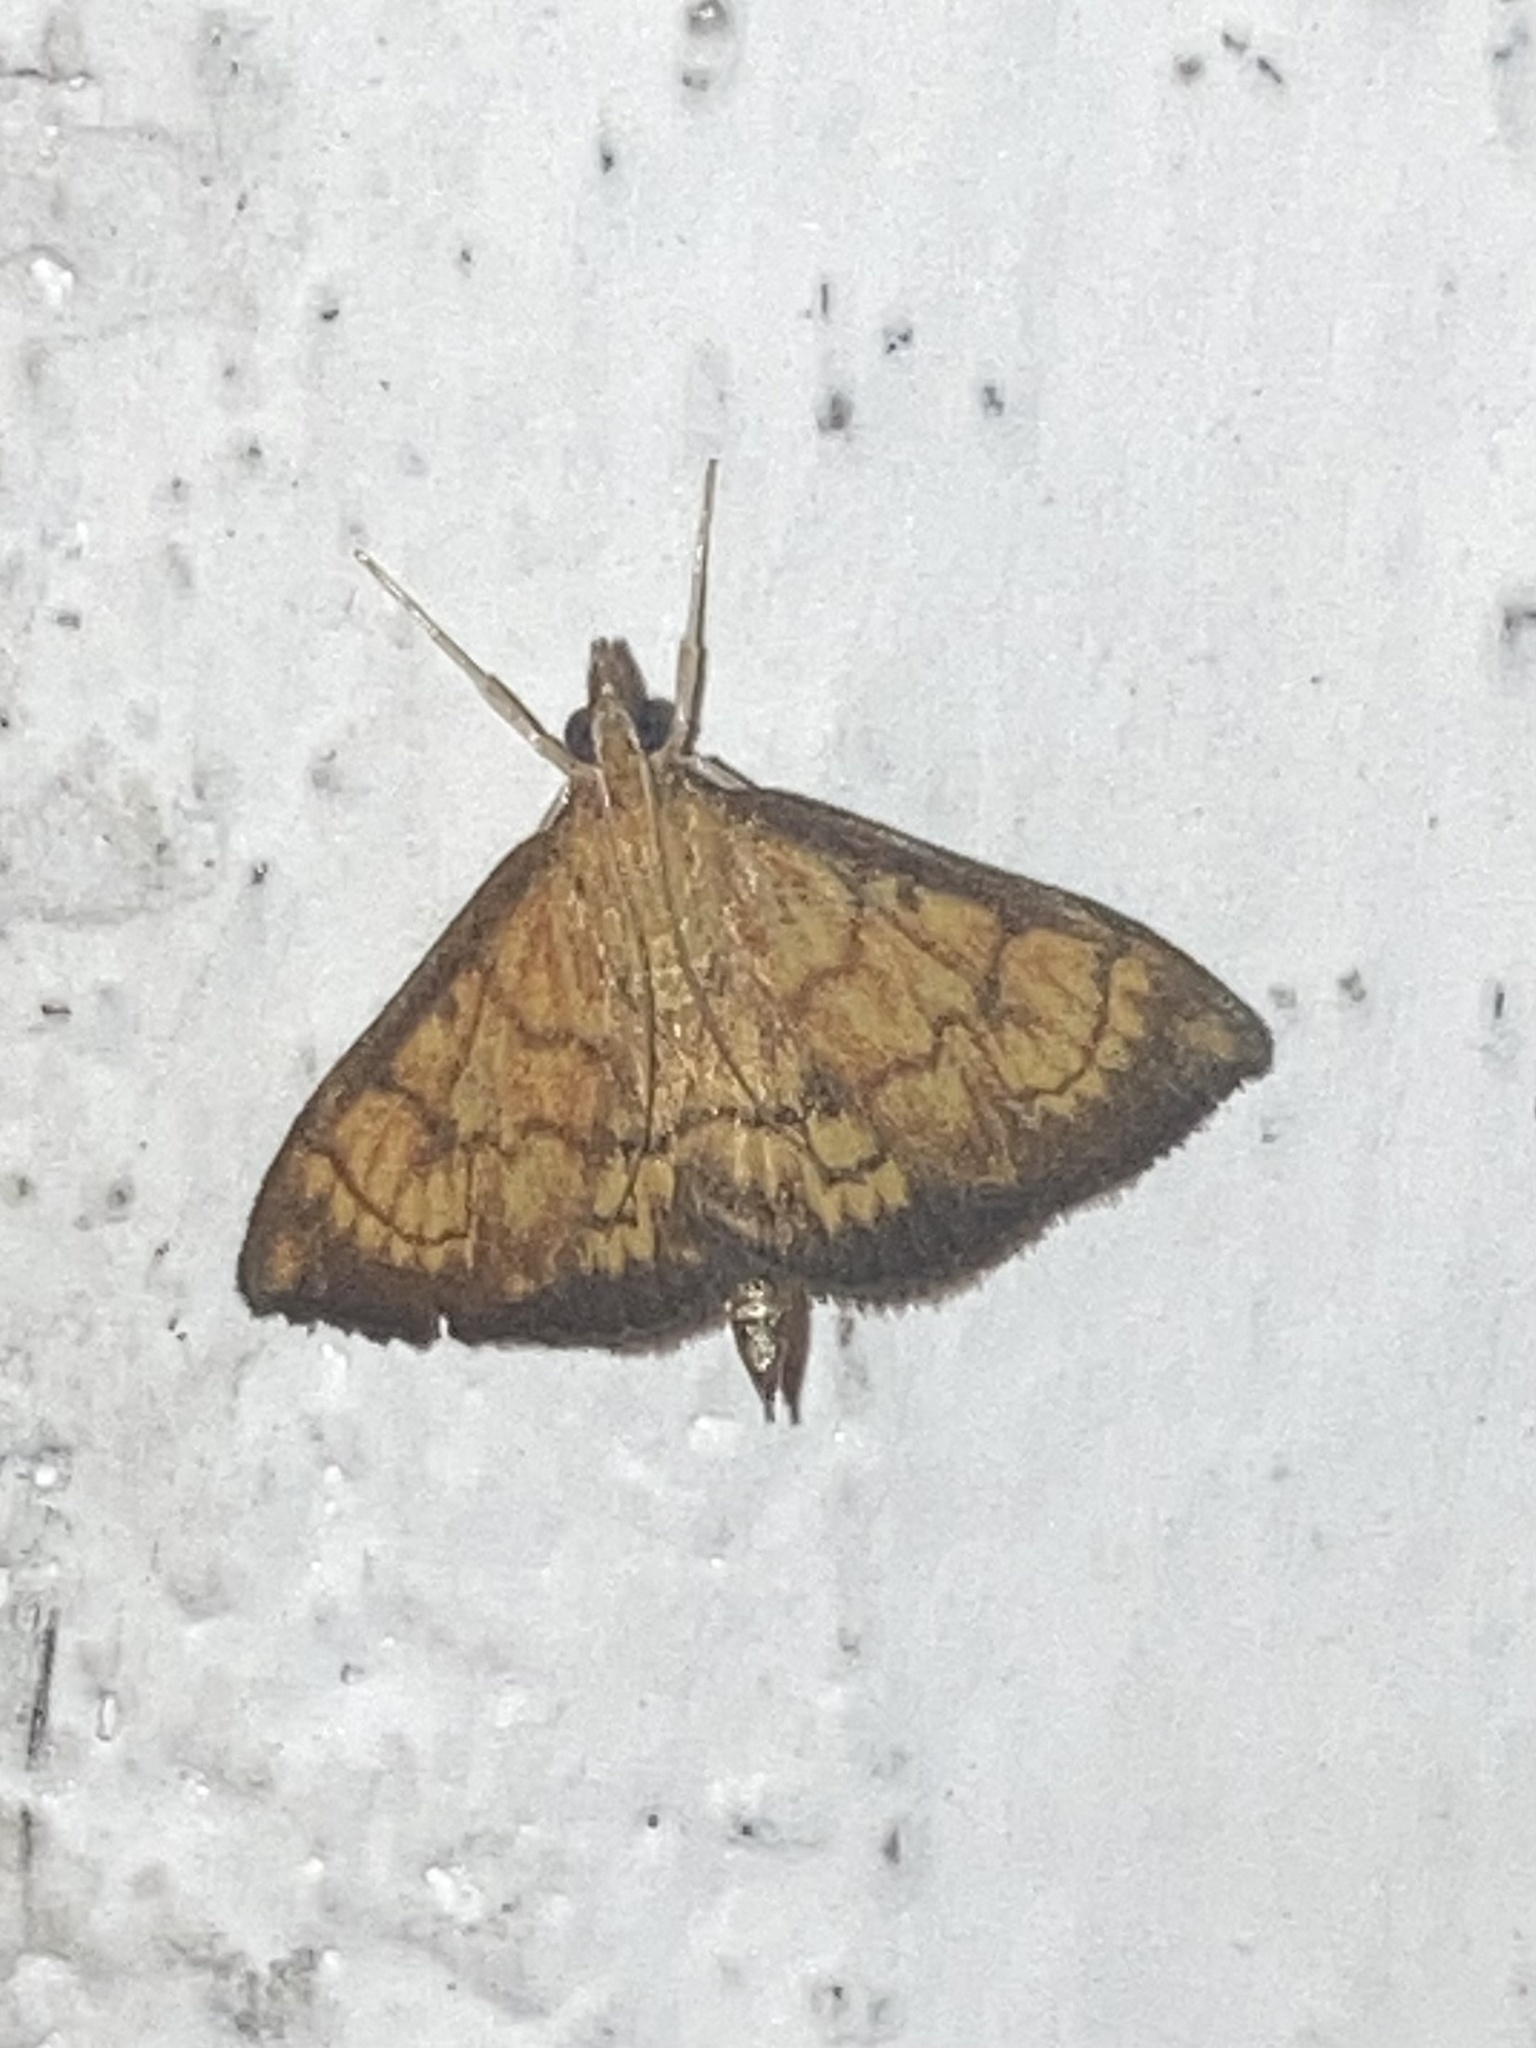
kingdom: Animalia
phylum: Arthropoda
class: Insecta
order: Lepidoptera
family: Crambidae
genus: Ecpyrrhorrhoe
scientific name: Ecpyrrhorrhoe rubiginalis
